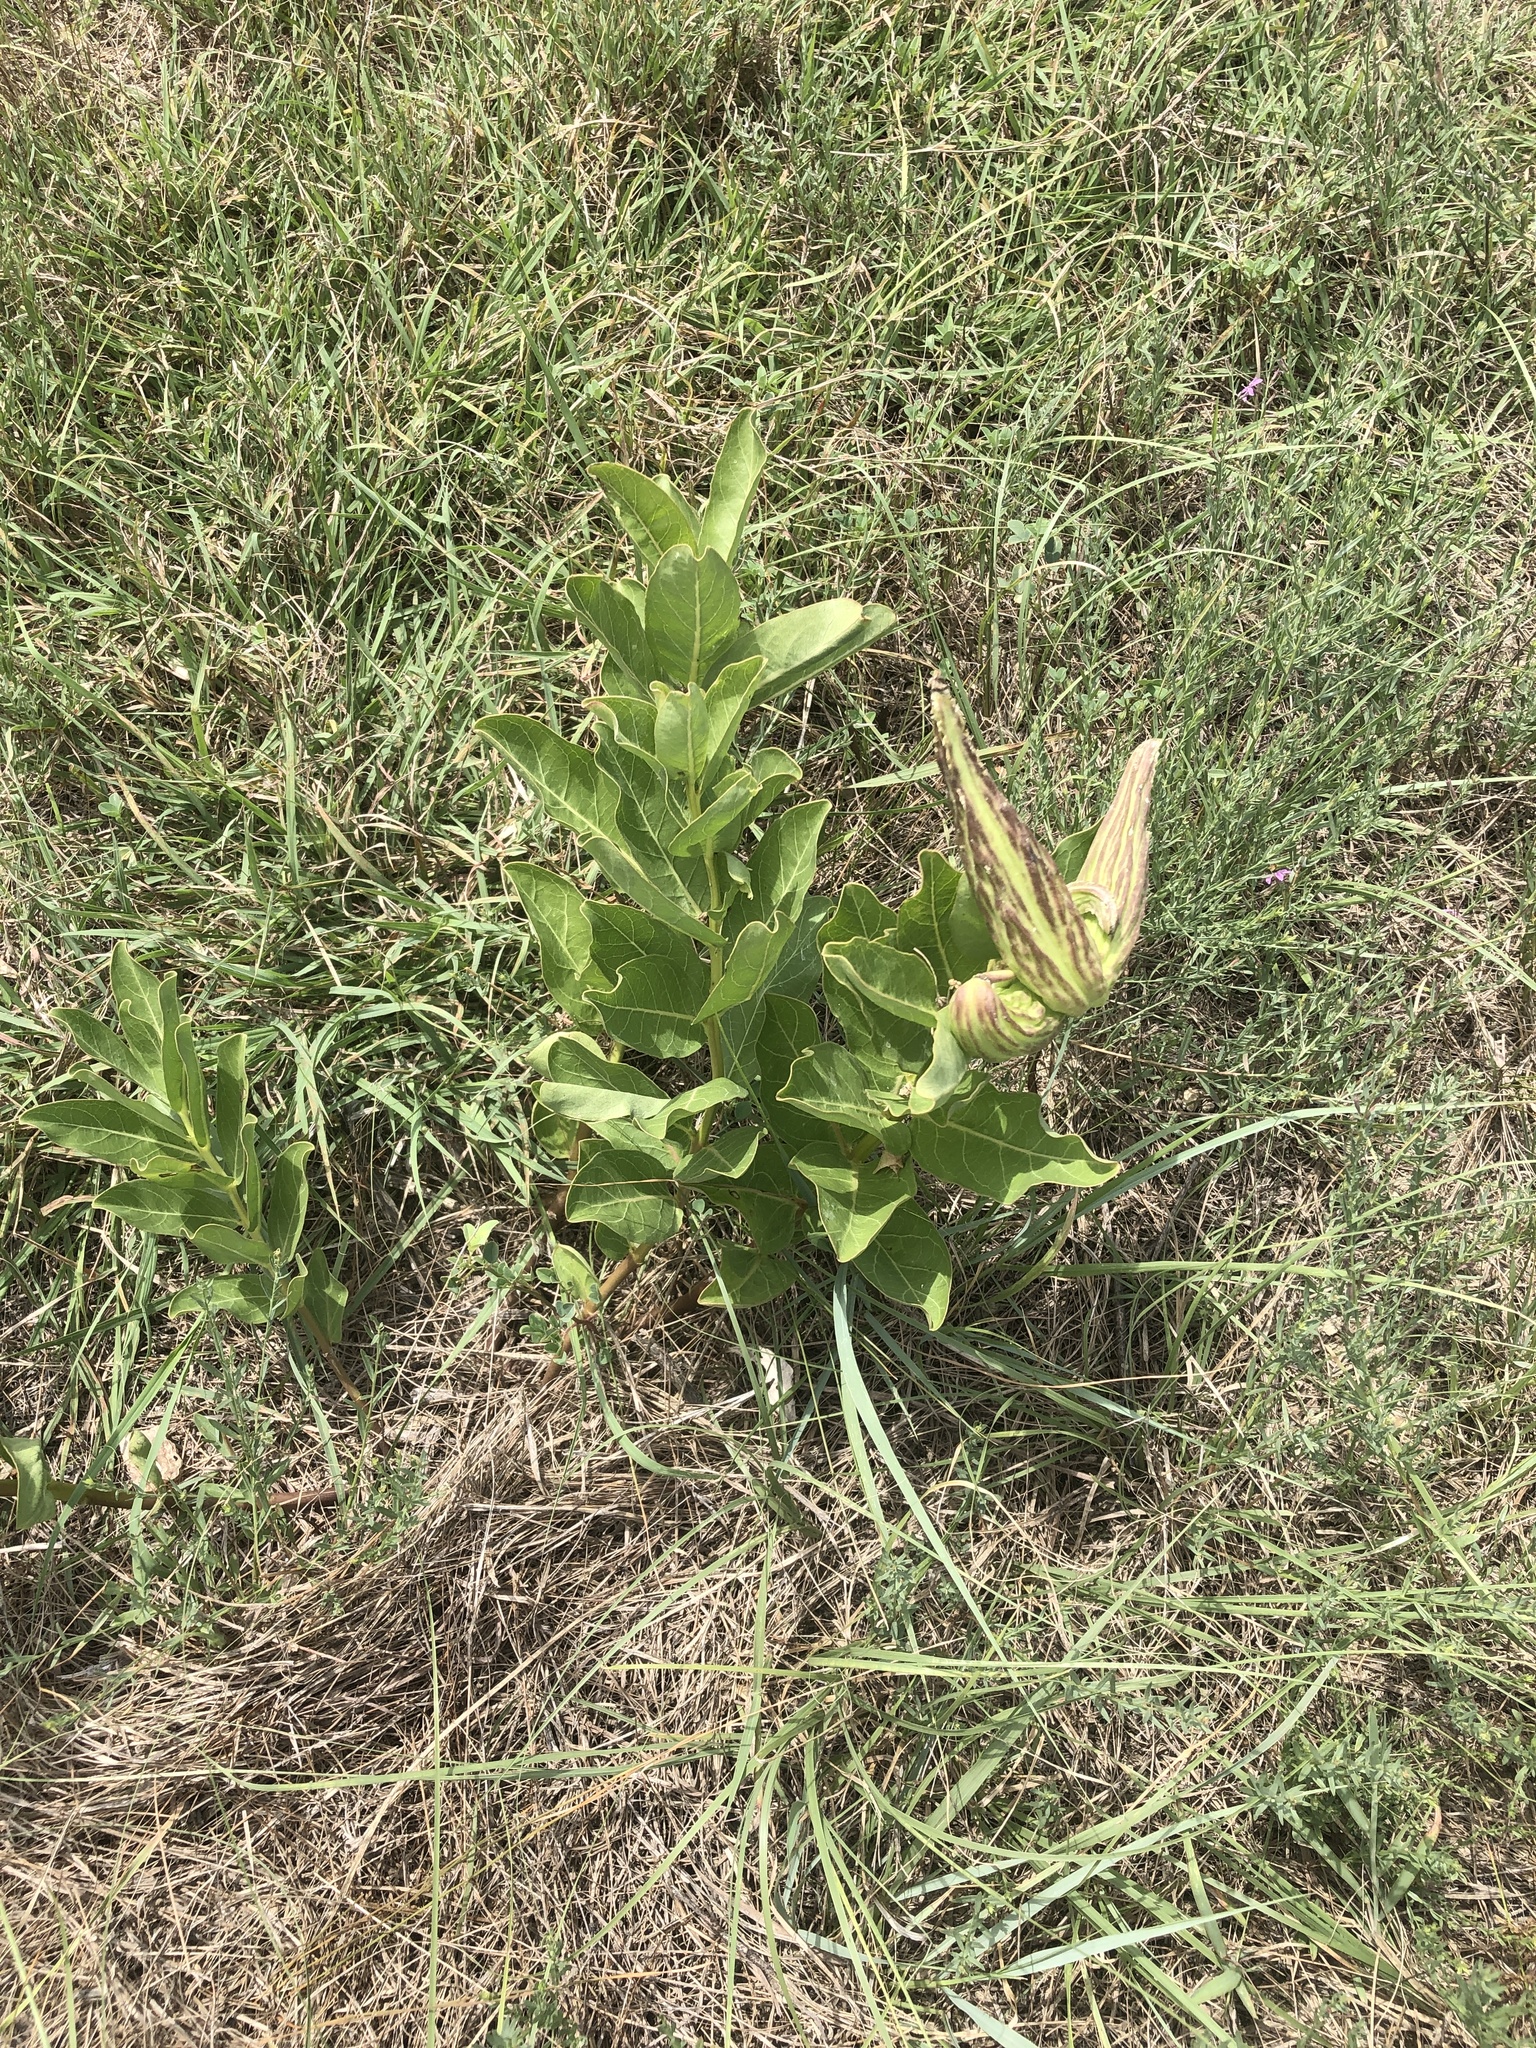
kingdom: Plantae
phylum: Tracheophyta
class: Magnoliopsida
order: Gentianales
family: Apocynaceae
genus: Asclepias
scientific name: Asclepias viridis
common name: Antelope-horns
